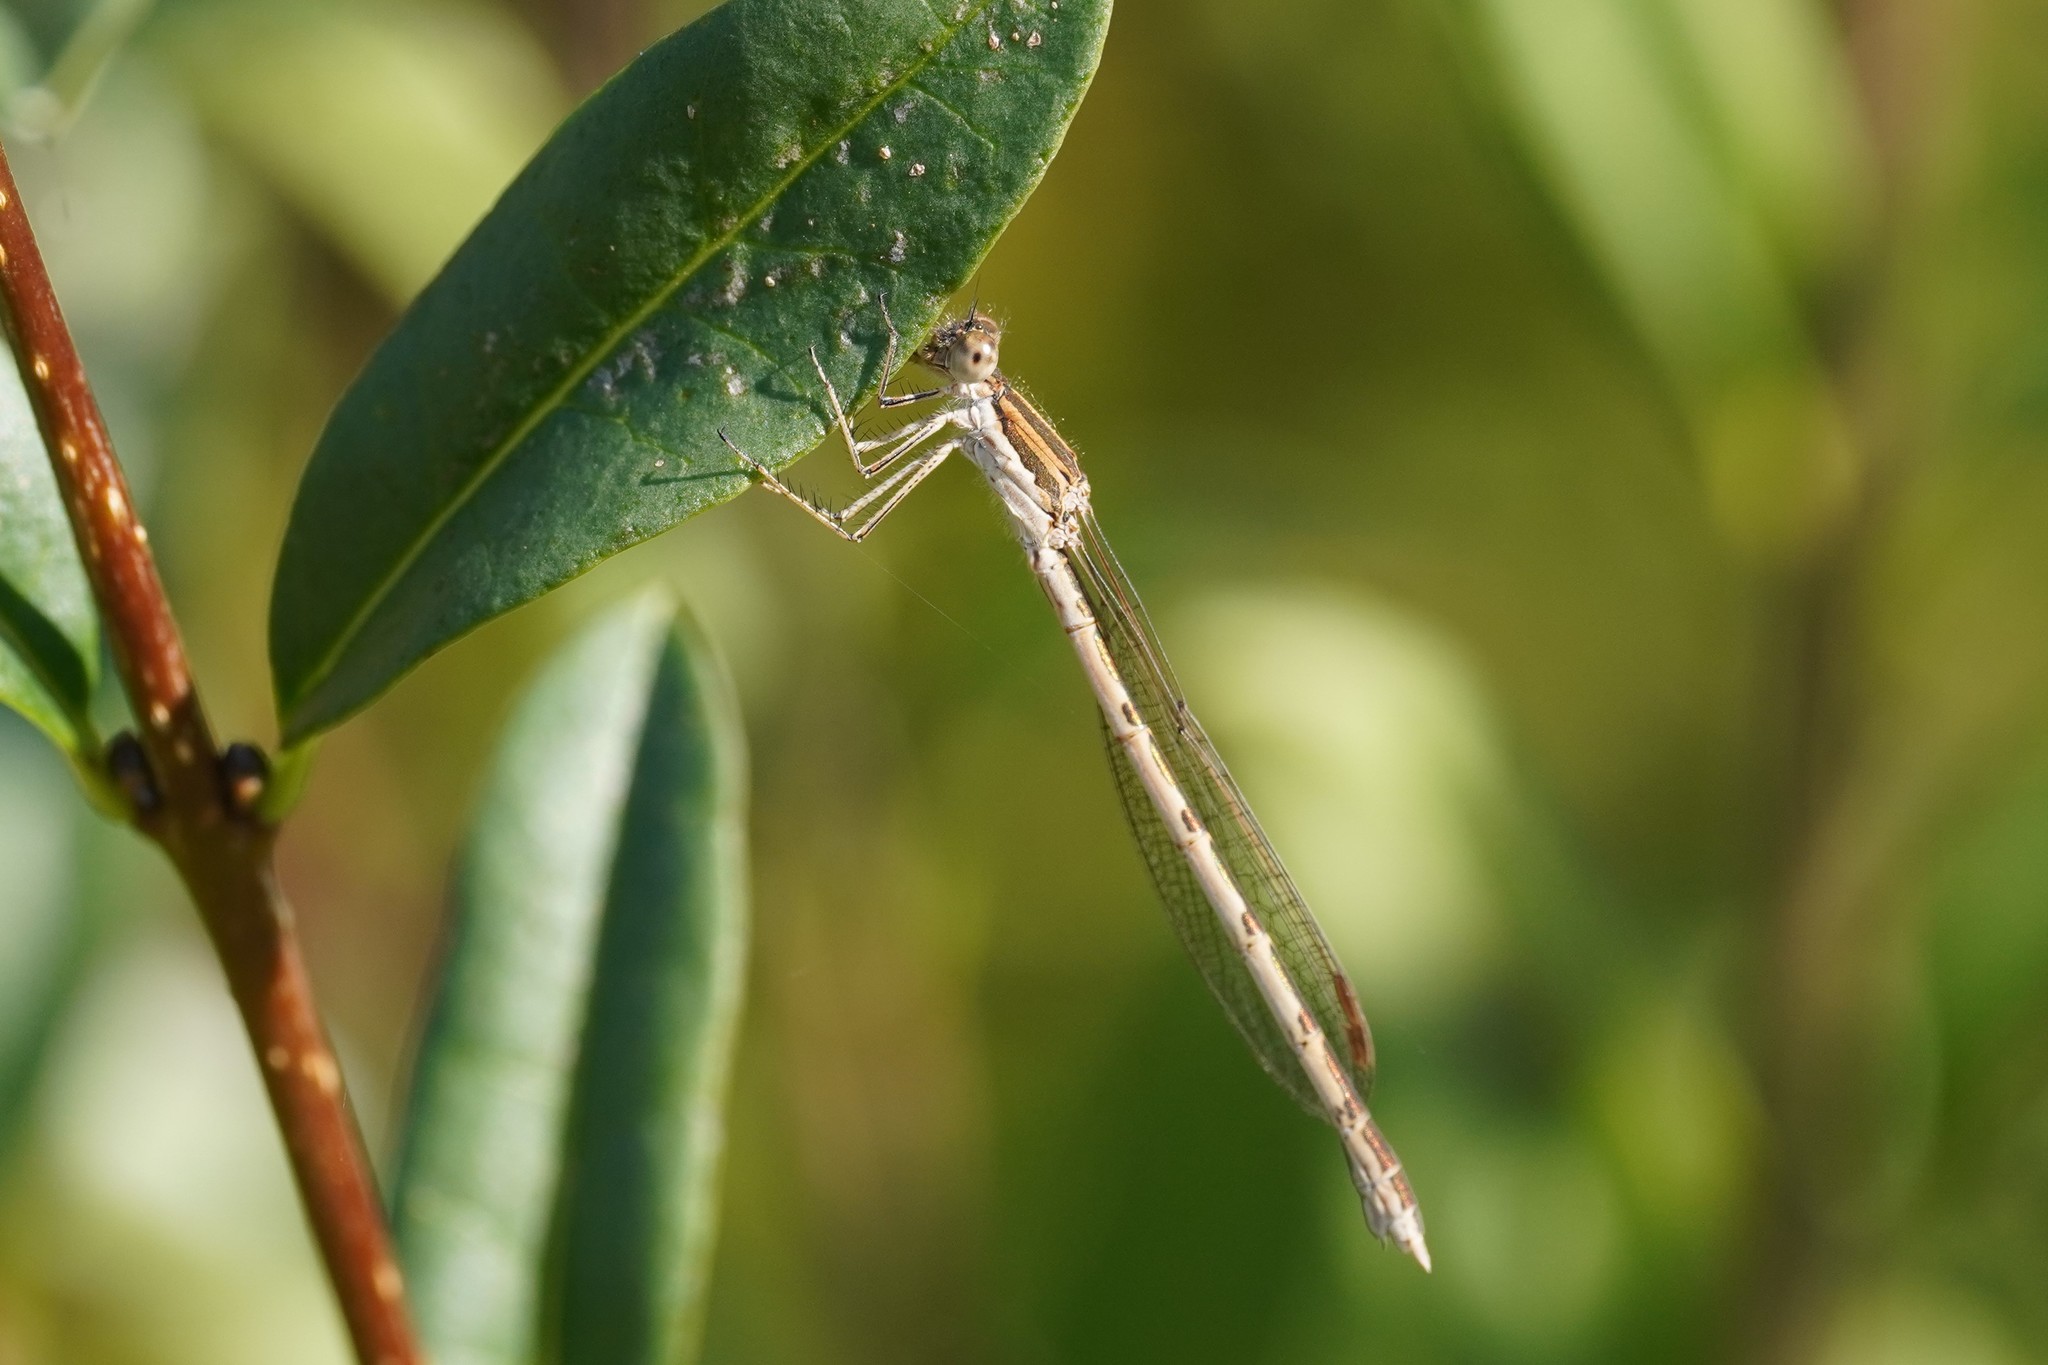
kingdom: Animalia
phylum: Arthropoda
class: Insecta
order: Odonata
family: Lestidae
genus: Sympecma
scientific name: Sympecma fusca
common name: Common winter damsel
